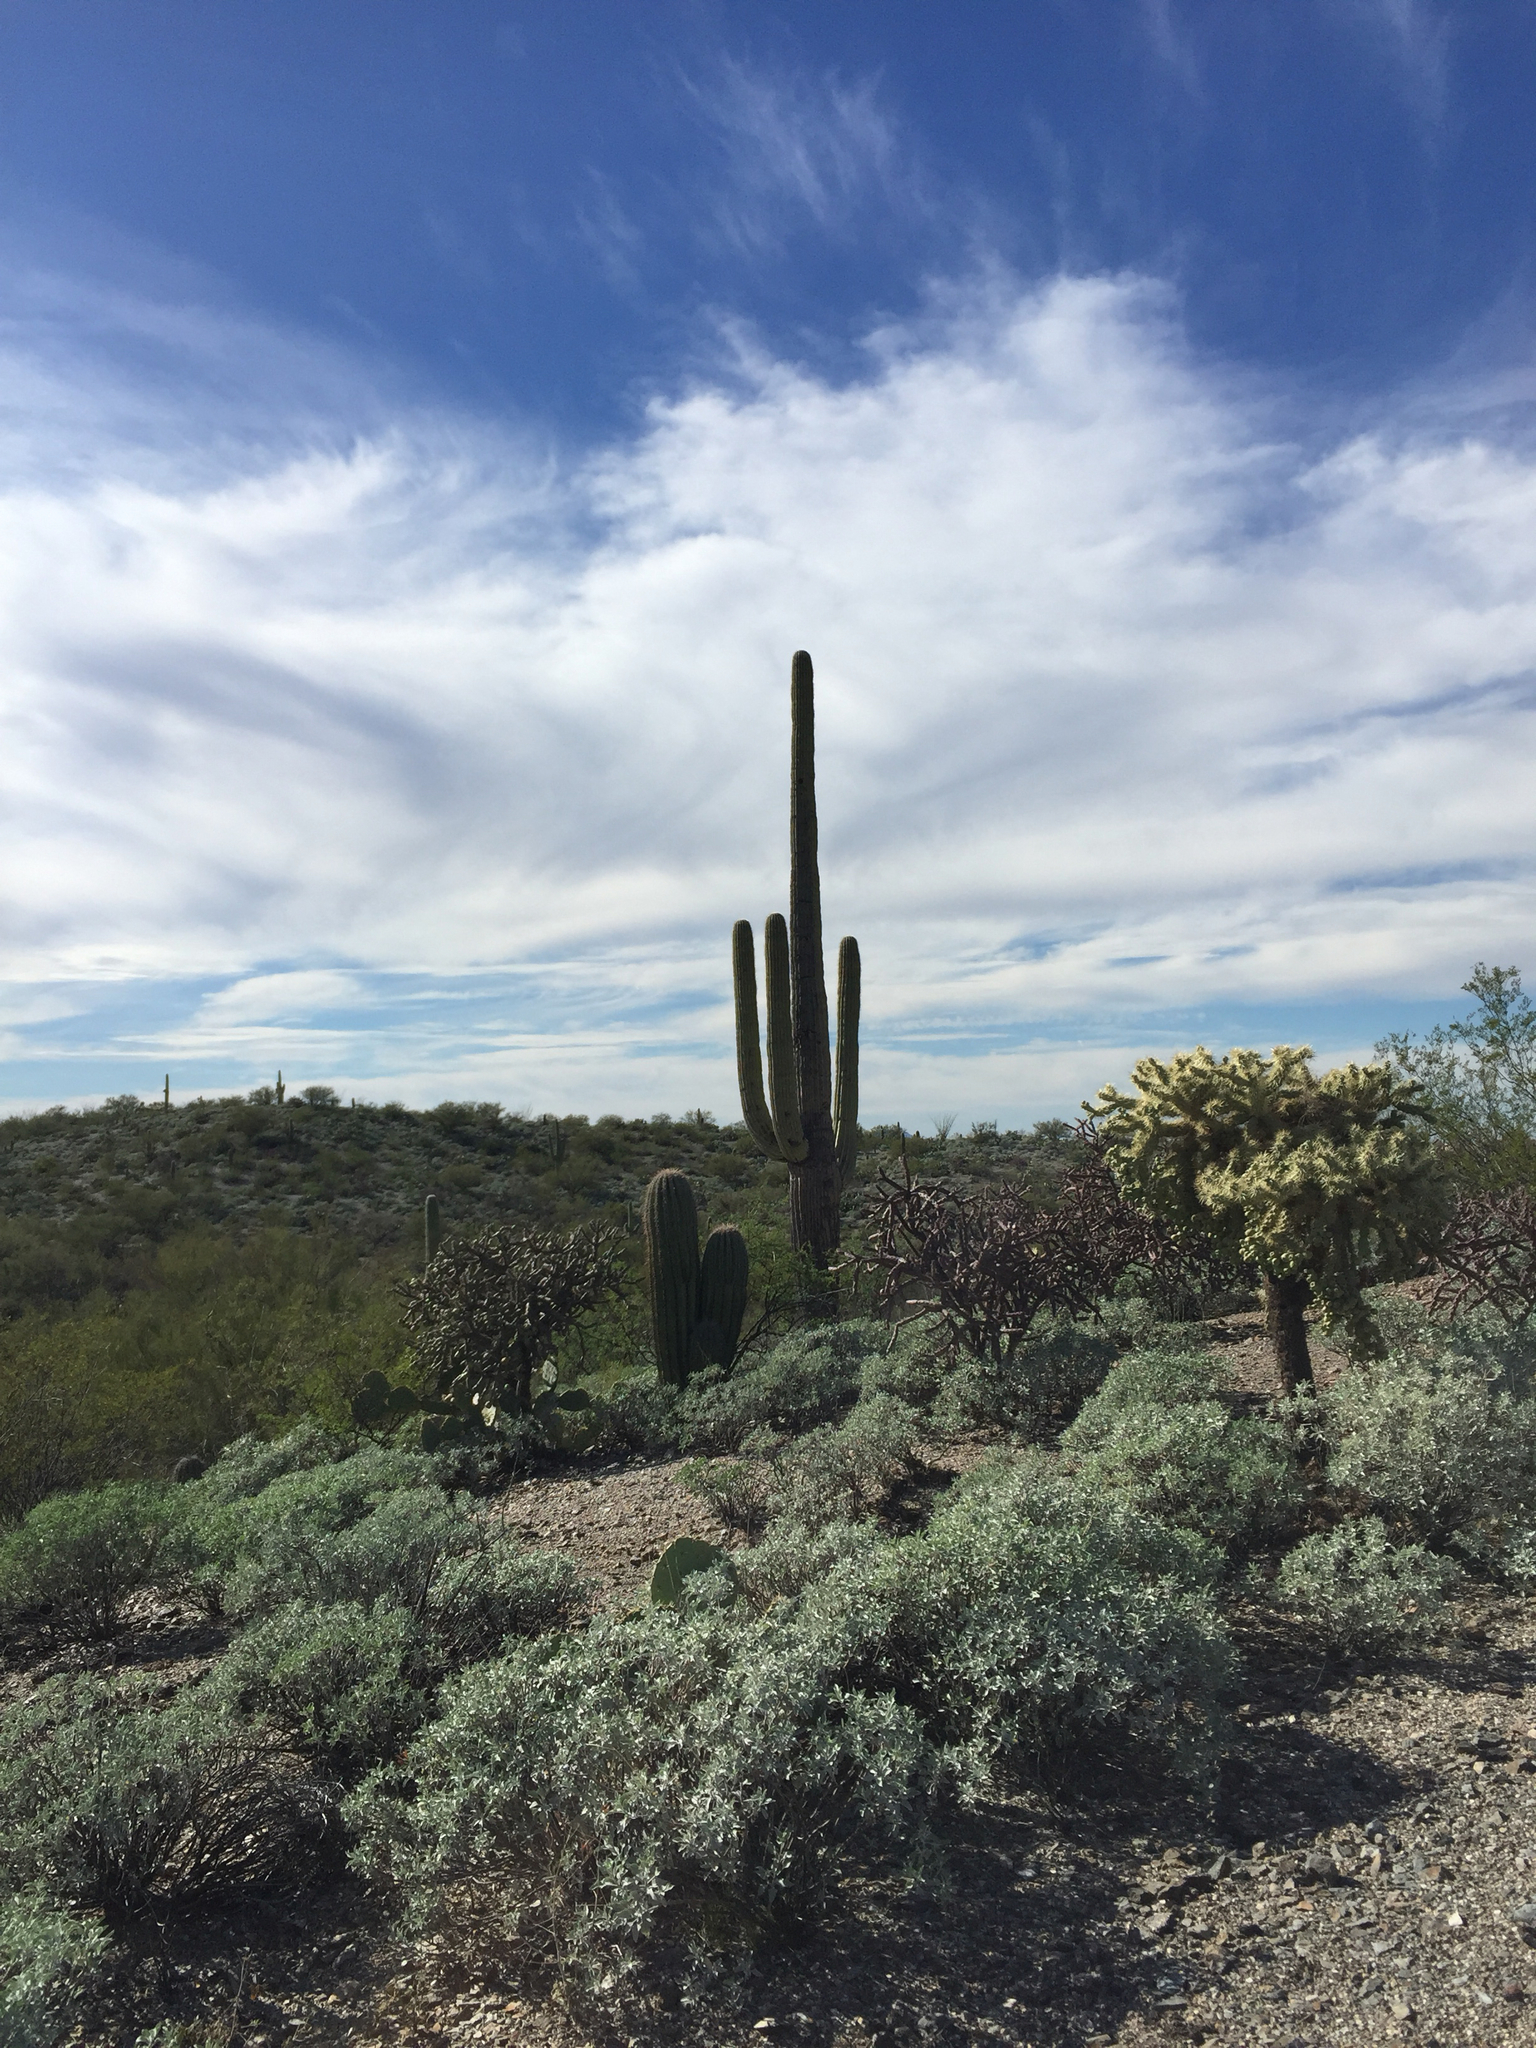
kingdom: Plantae
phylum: Tracheophyta
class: Magnoliopsida
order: Caryophyllales
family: Cactaceae
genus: Carnegiea
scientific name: Carnegiea gigantea
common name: Saguaro
